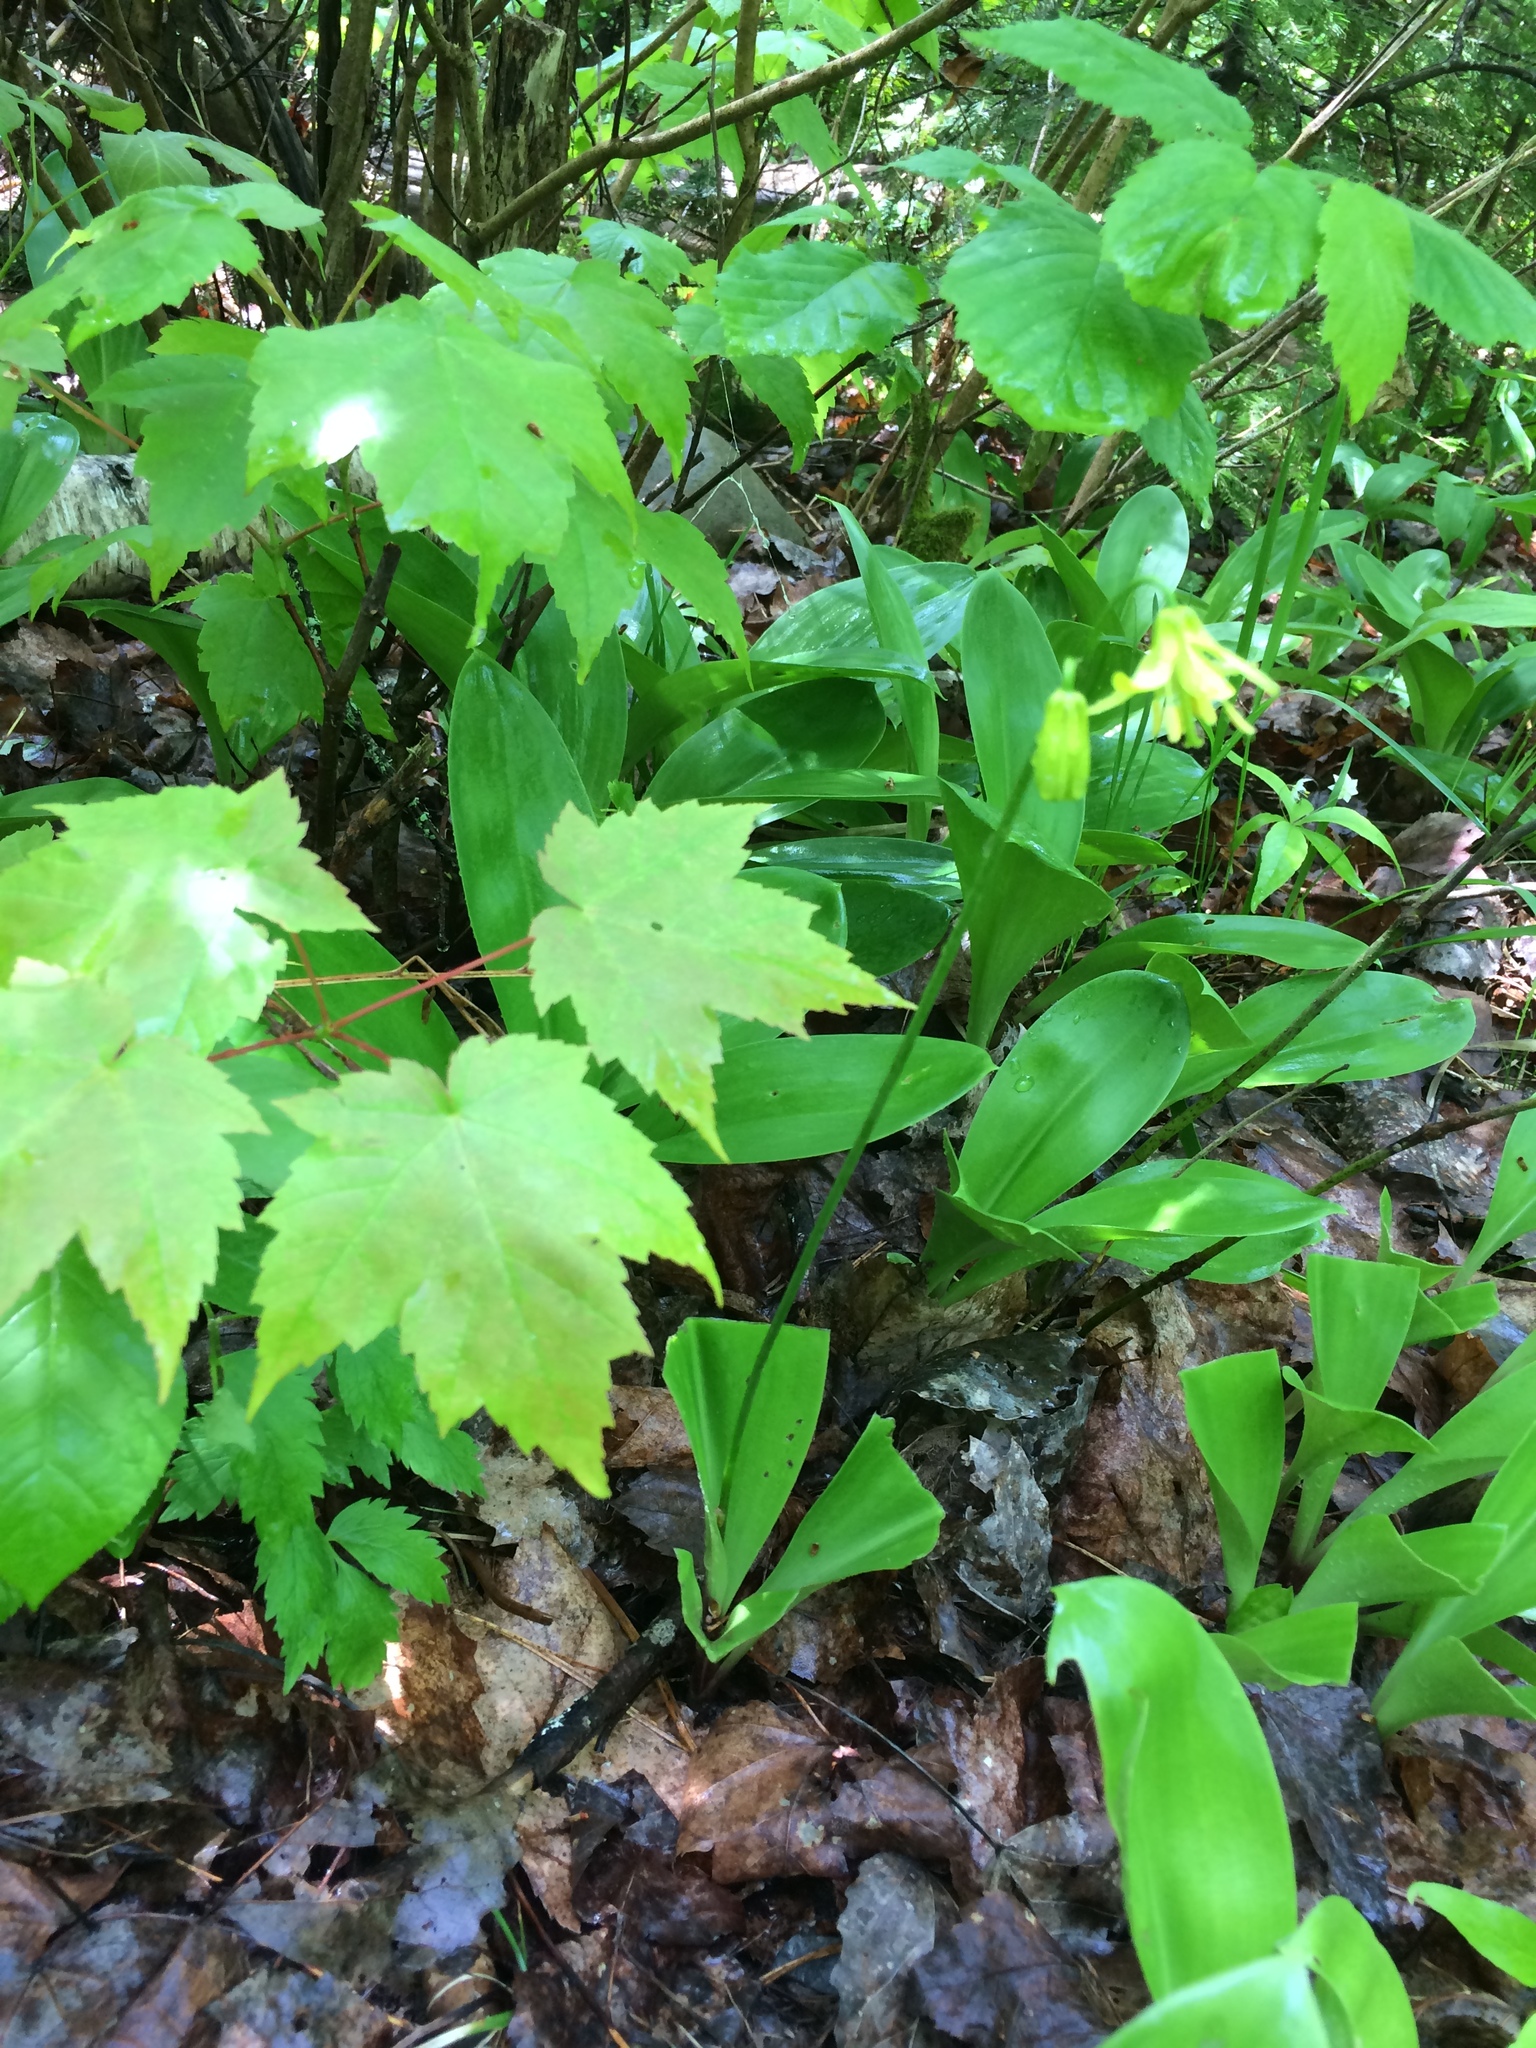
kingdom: Plantae
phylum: Tracheophyta
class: Liliopsida
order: Liliales
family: Liliaceae
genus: Clintonia
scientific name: Clintonia borealis
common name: Yellow clintonia
